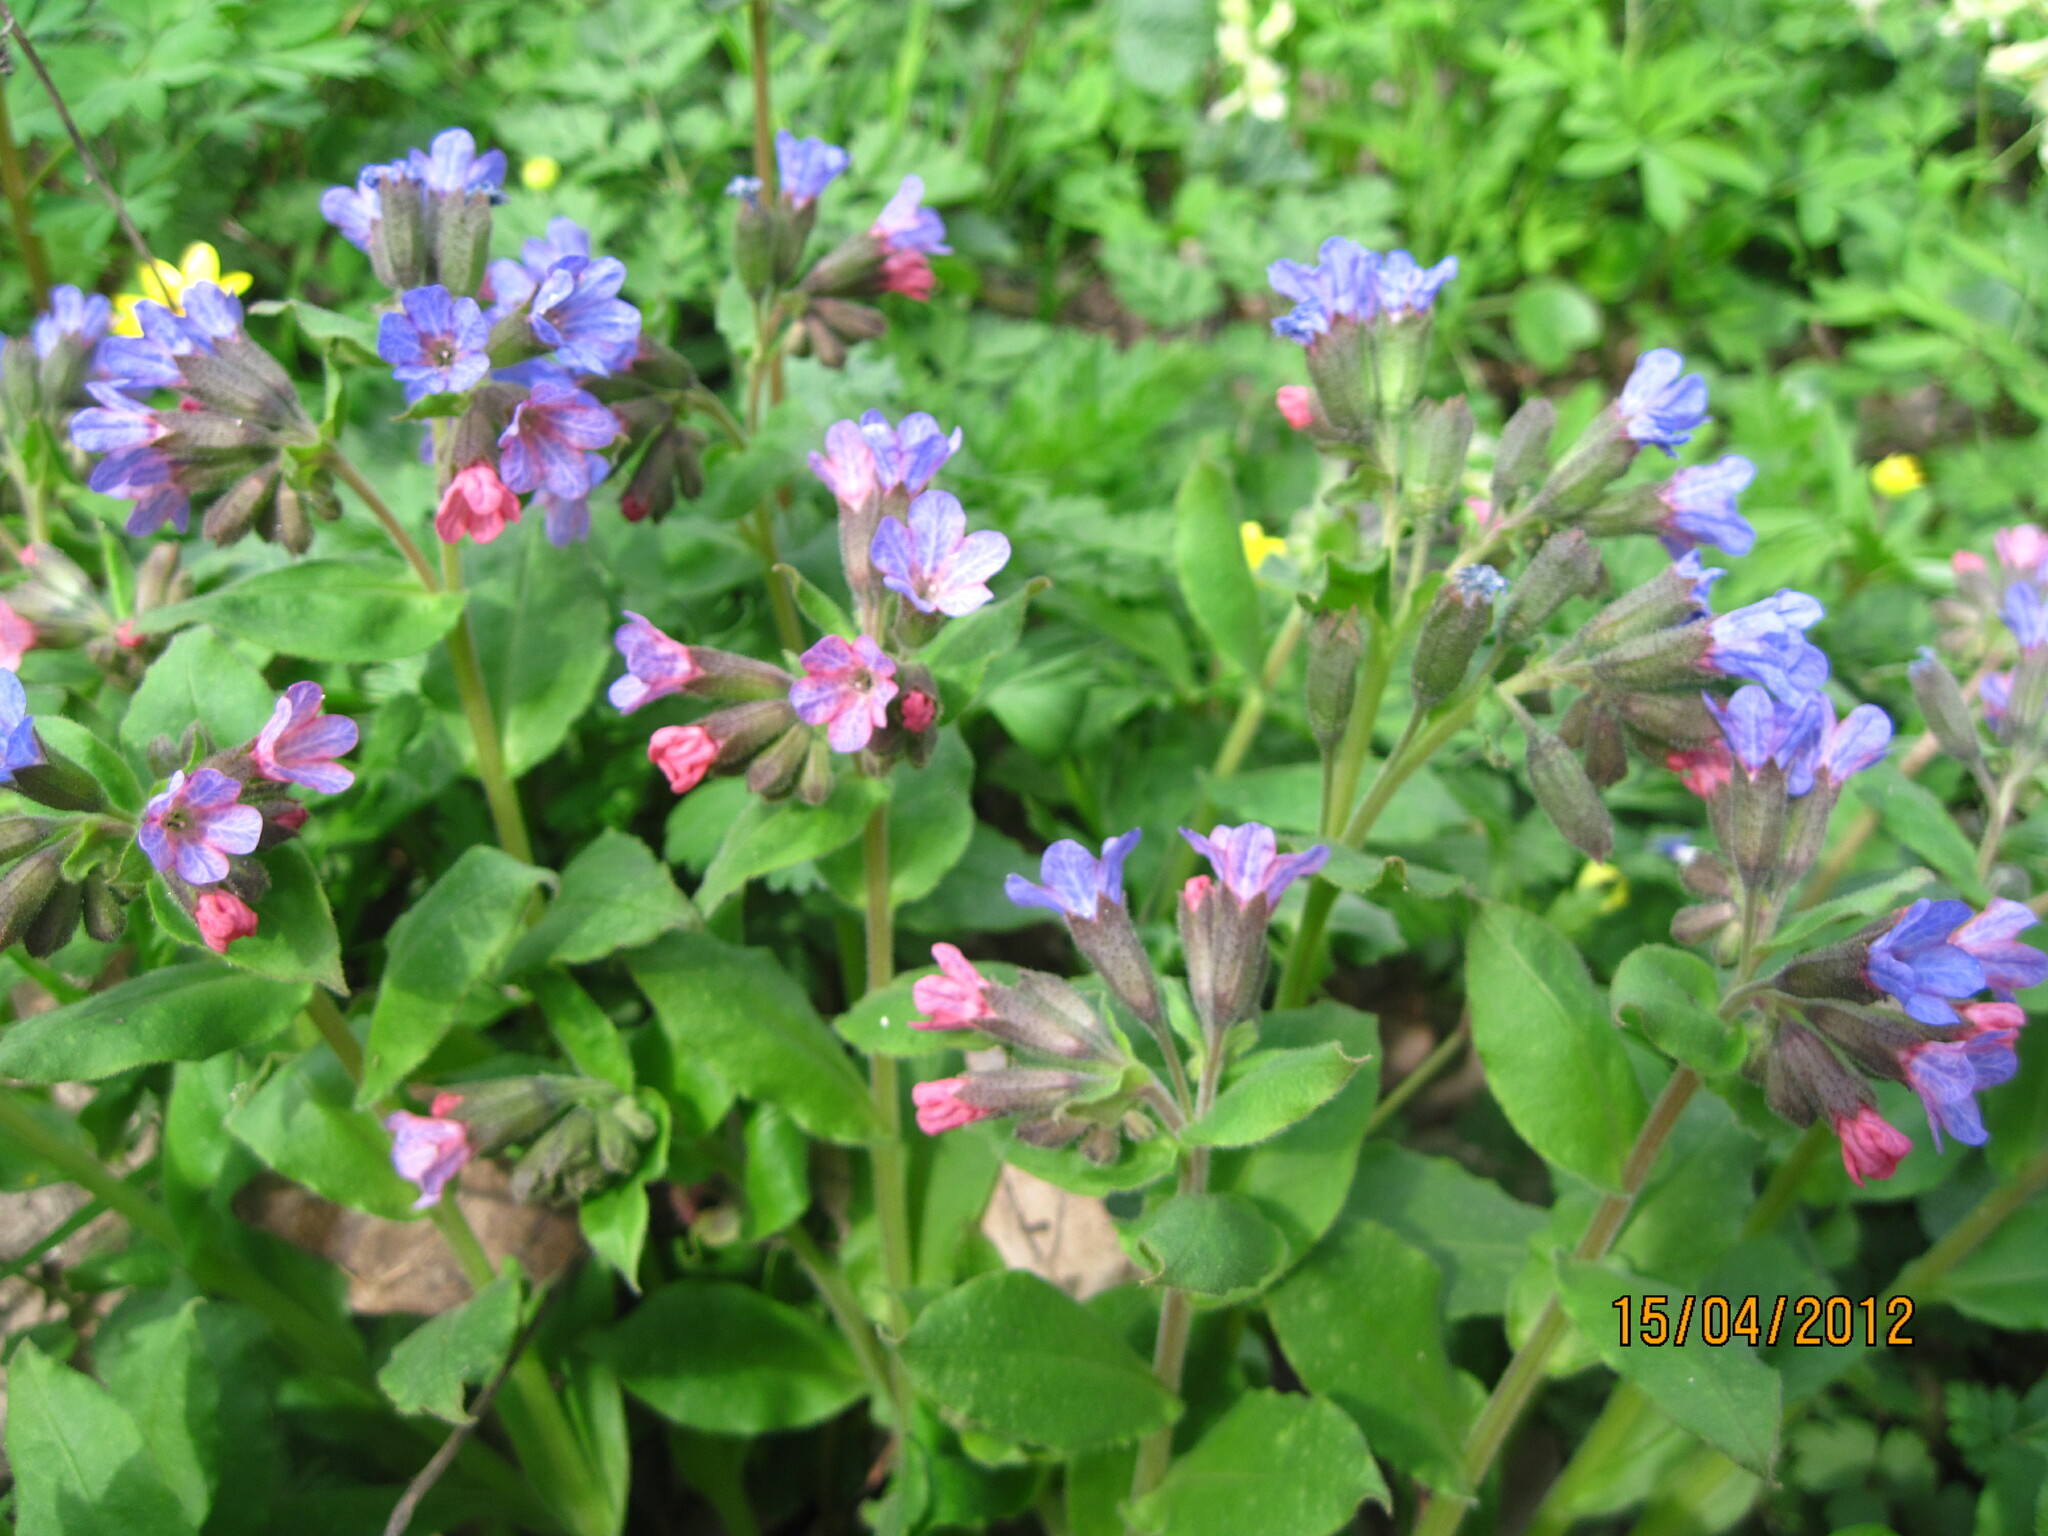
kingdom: Plantae
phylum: Tracheophyta
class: Magnoliopsida
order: Boraginales
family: Boraginaceae
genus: Pulmonaria
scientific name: Pulmonaria obscura
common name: Suffolk lungwort
